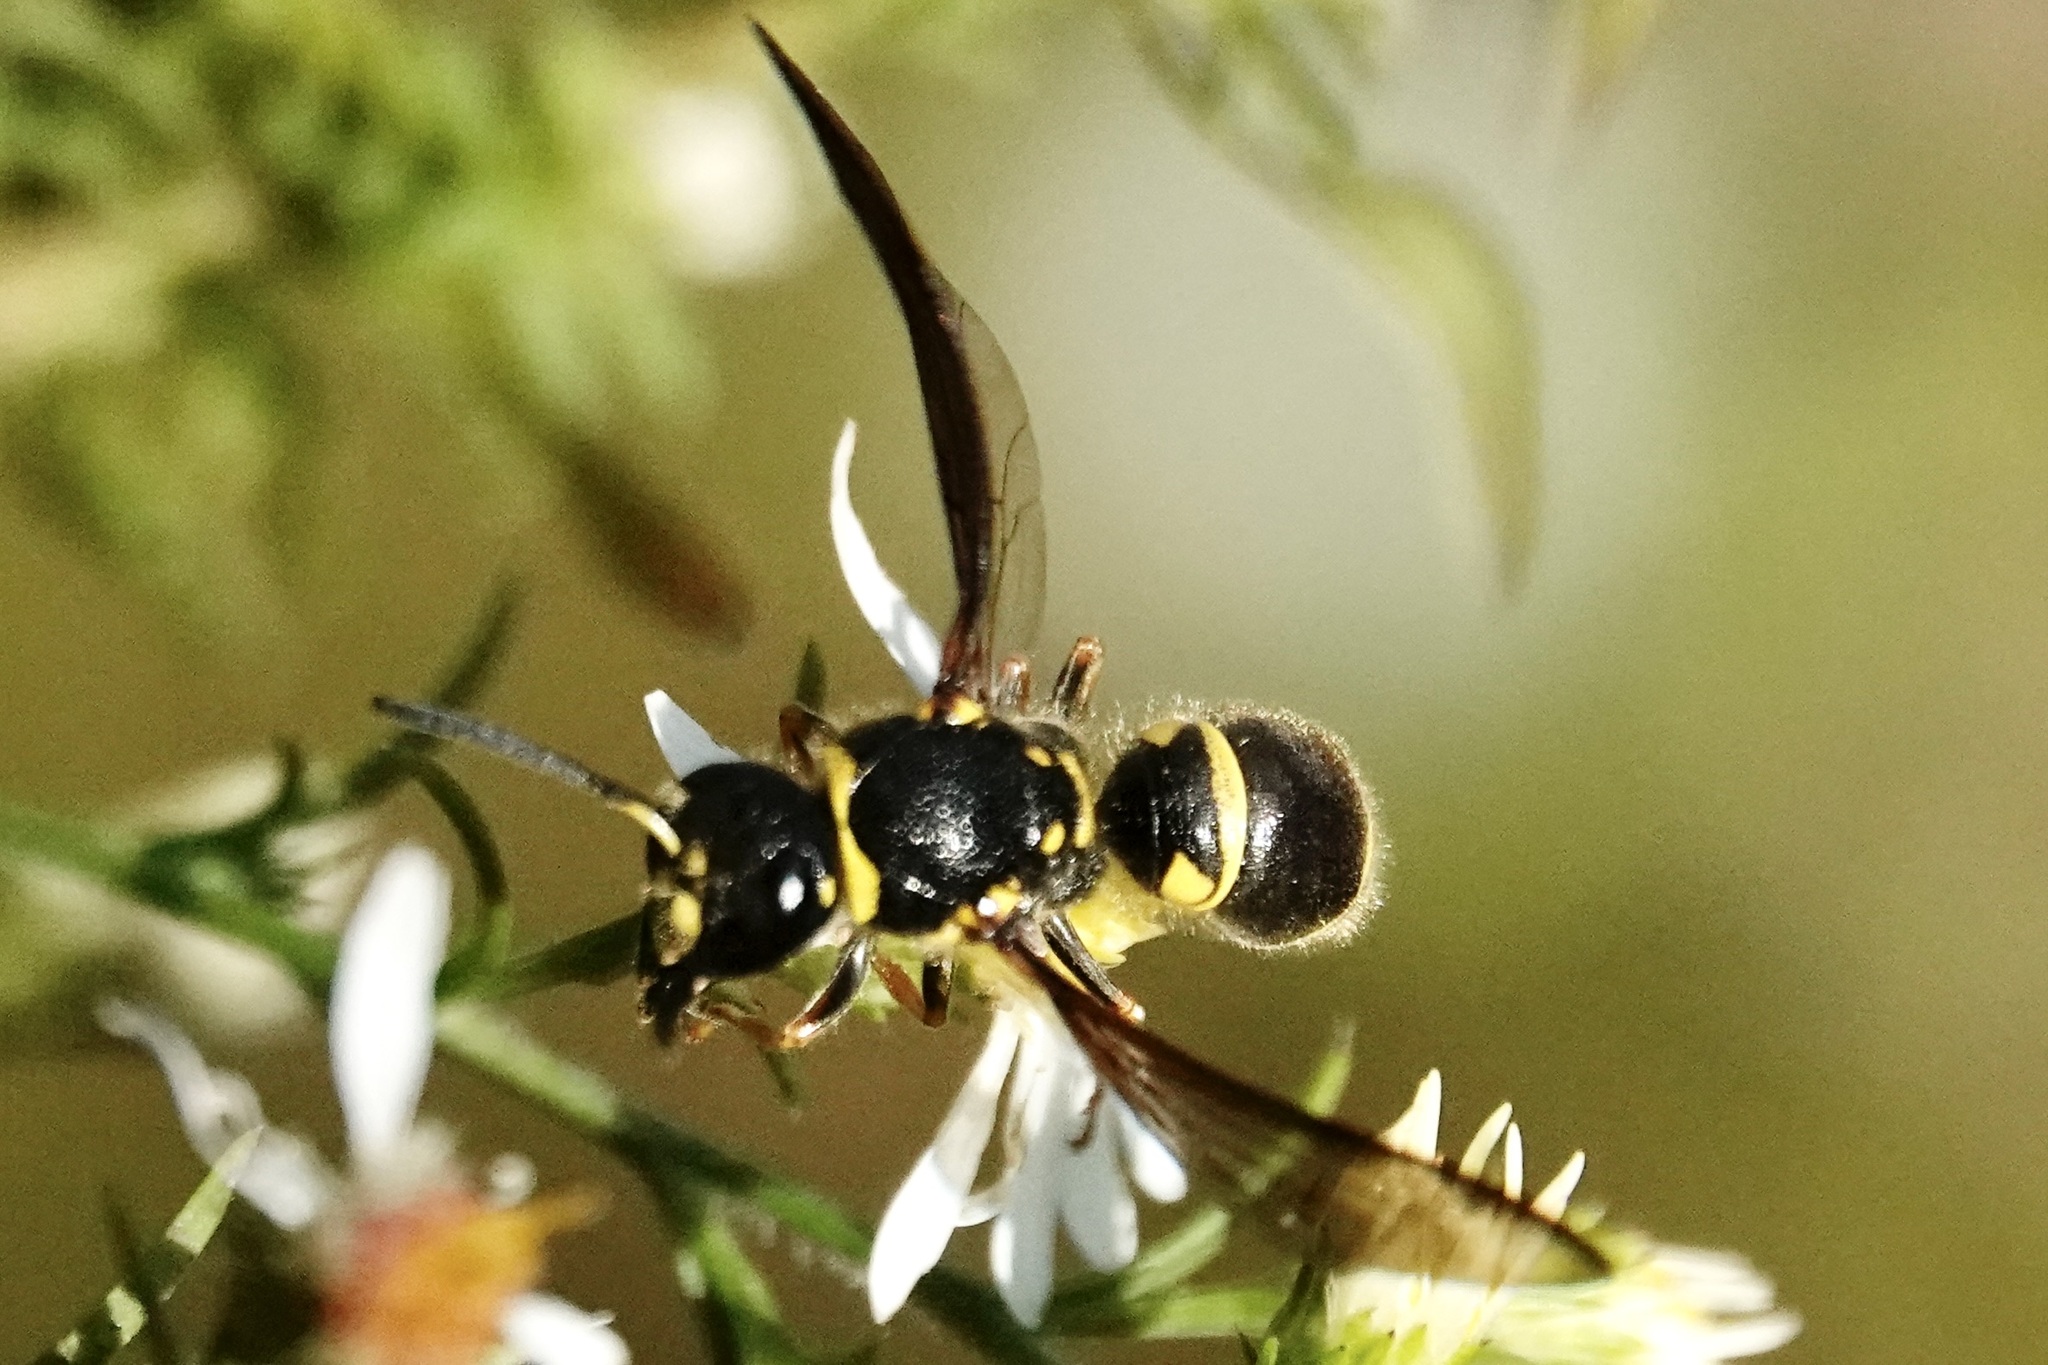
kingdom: Animalia
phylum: Arthropoda
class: Insecta
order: Hymenoptera
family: Vespidae
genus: Ancistrocerus
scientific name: Ancistrocerus campestris
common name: Smiling mason wasp
